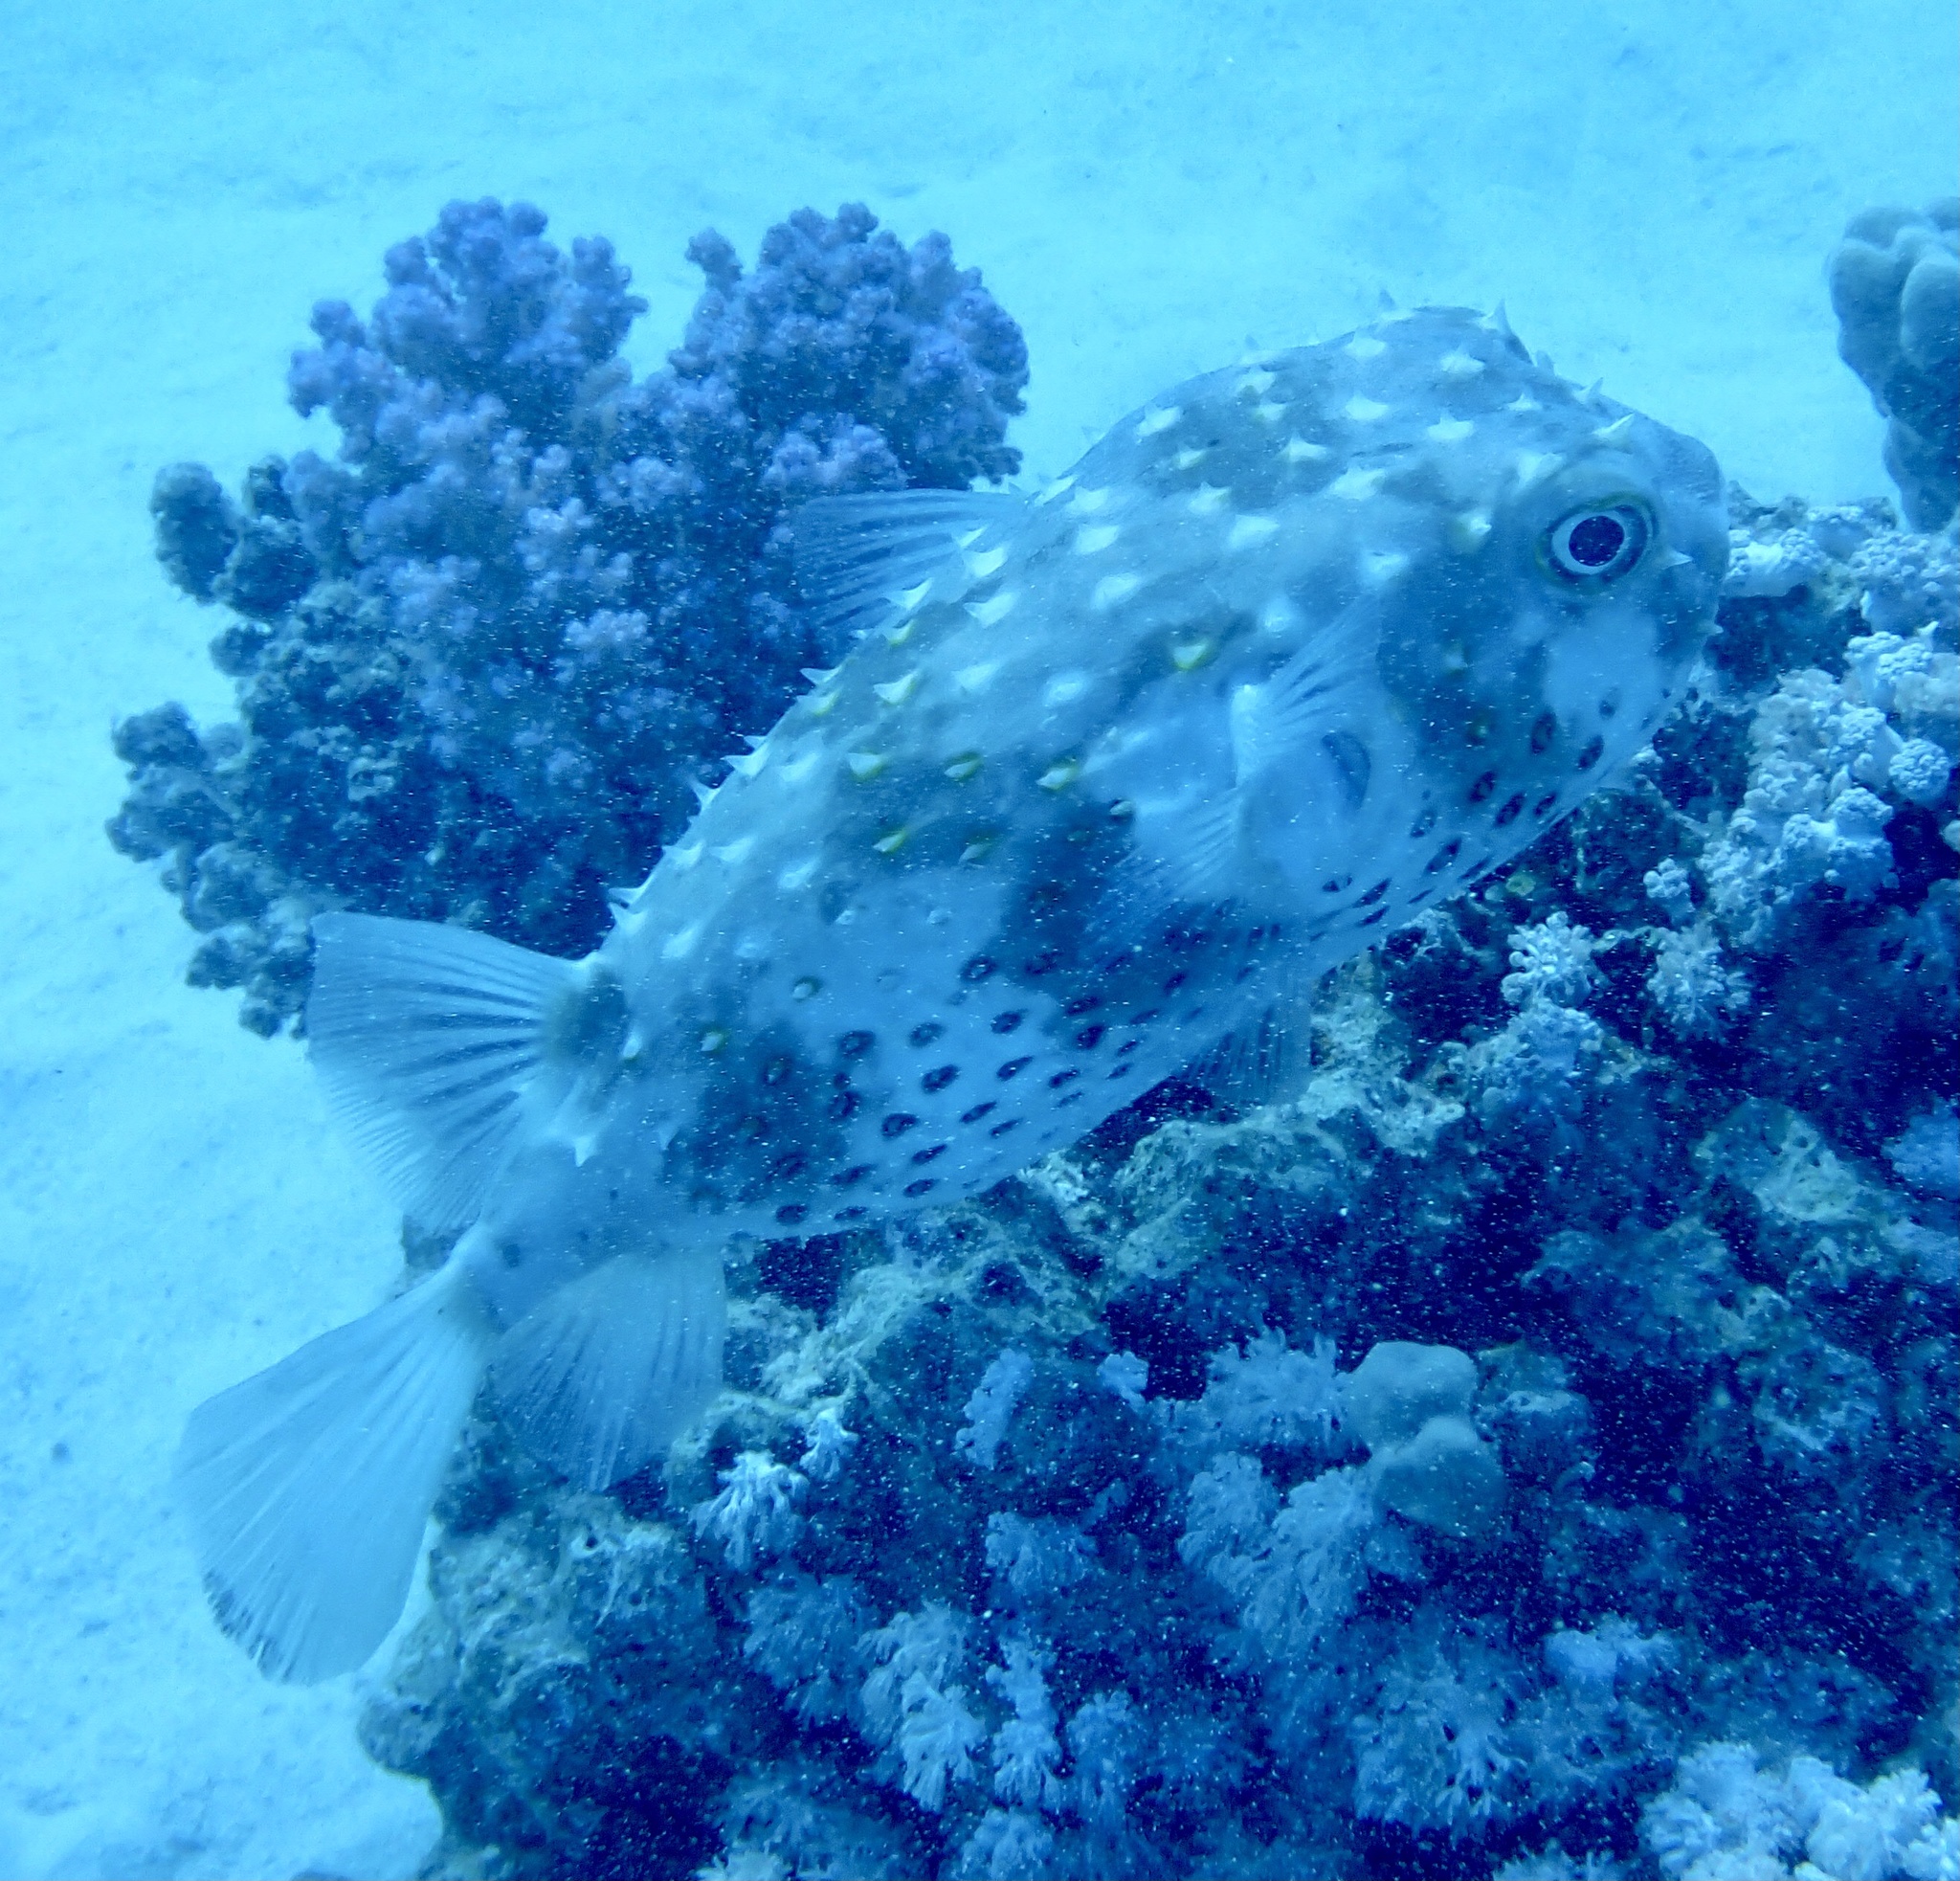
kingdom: Animalia
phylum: Chordata
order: Tetraodontiformes
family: Diodontidae
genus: Cyclichthys
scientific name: Cyclichthys spilostylus
